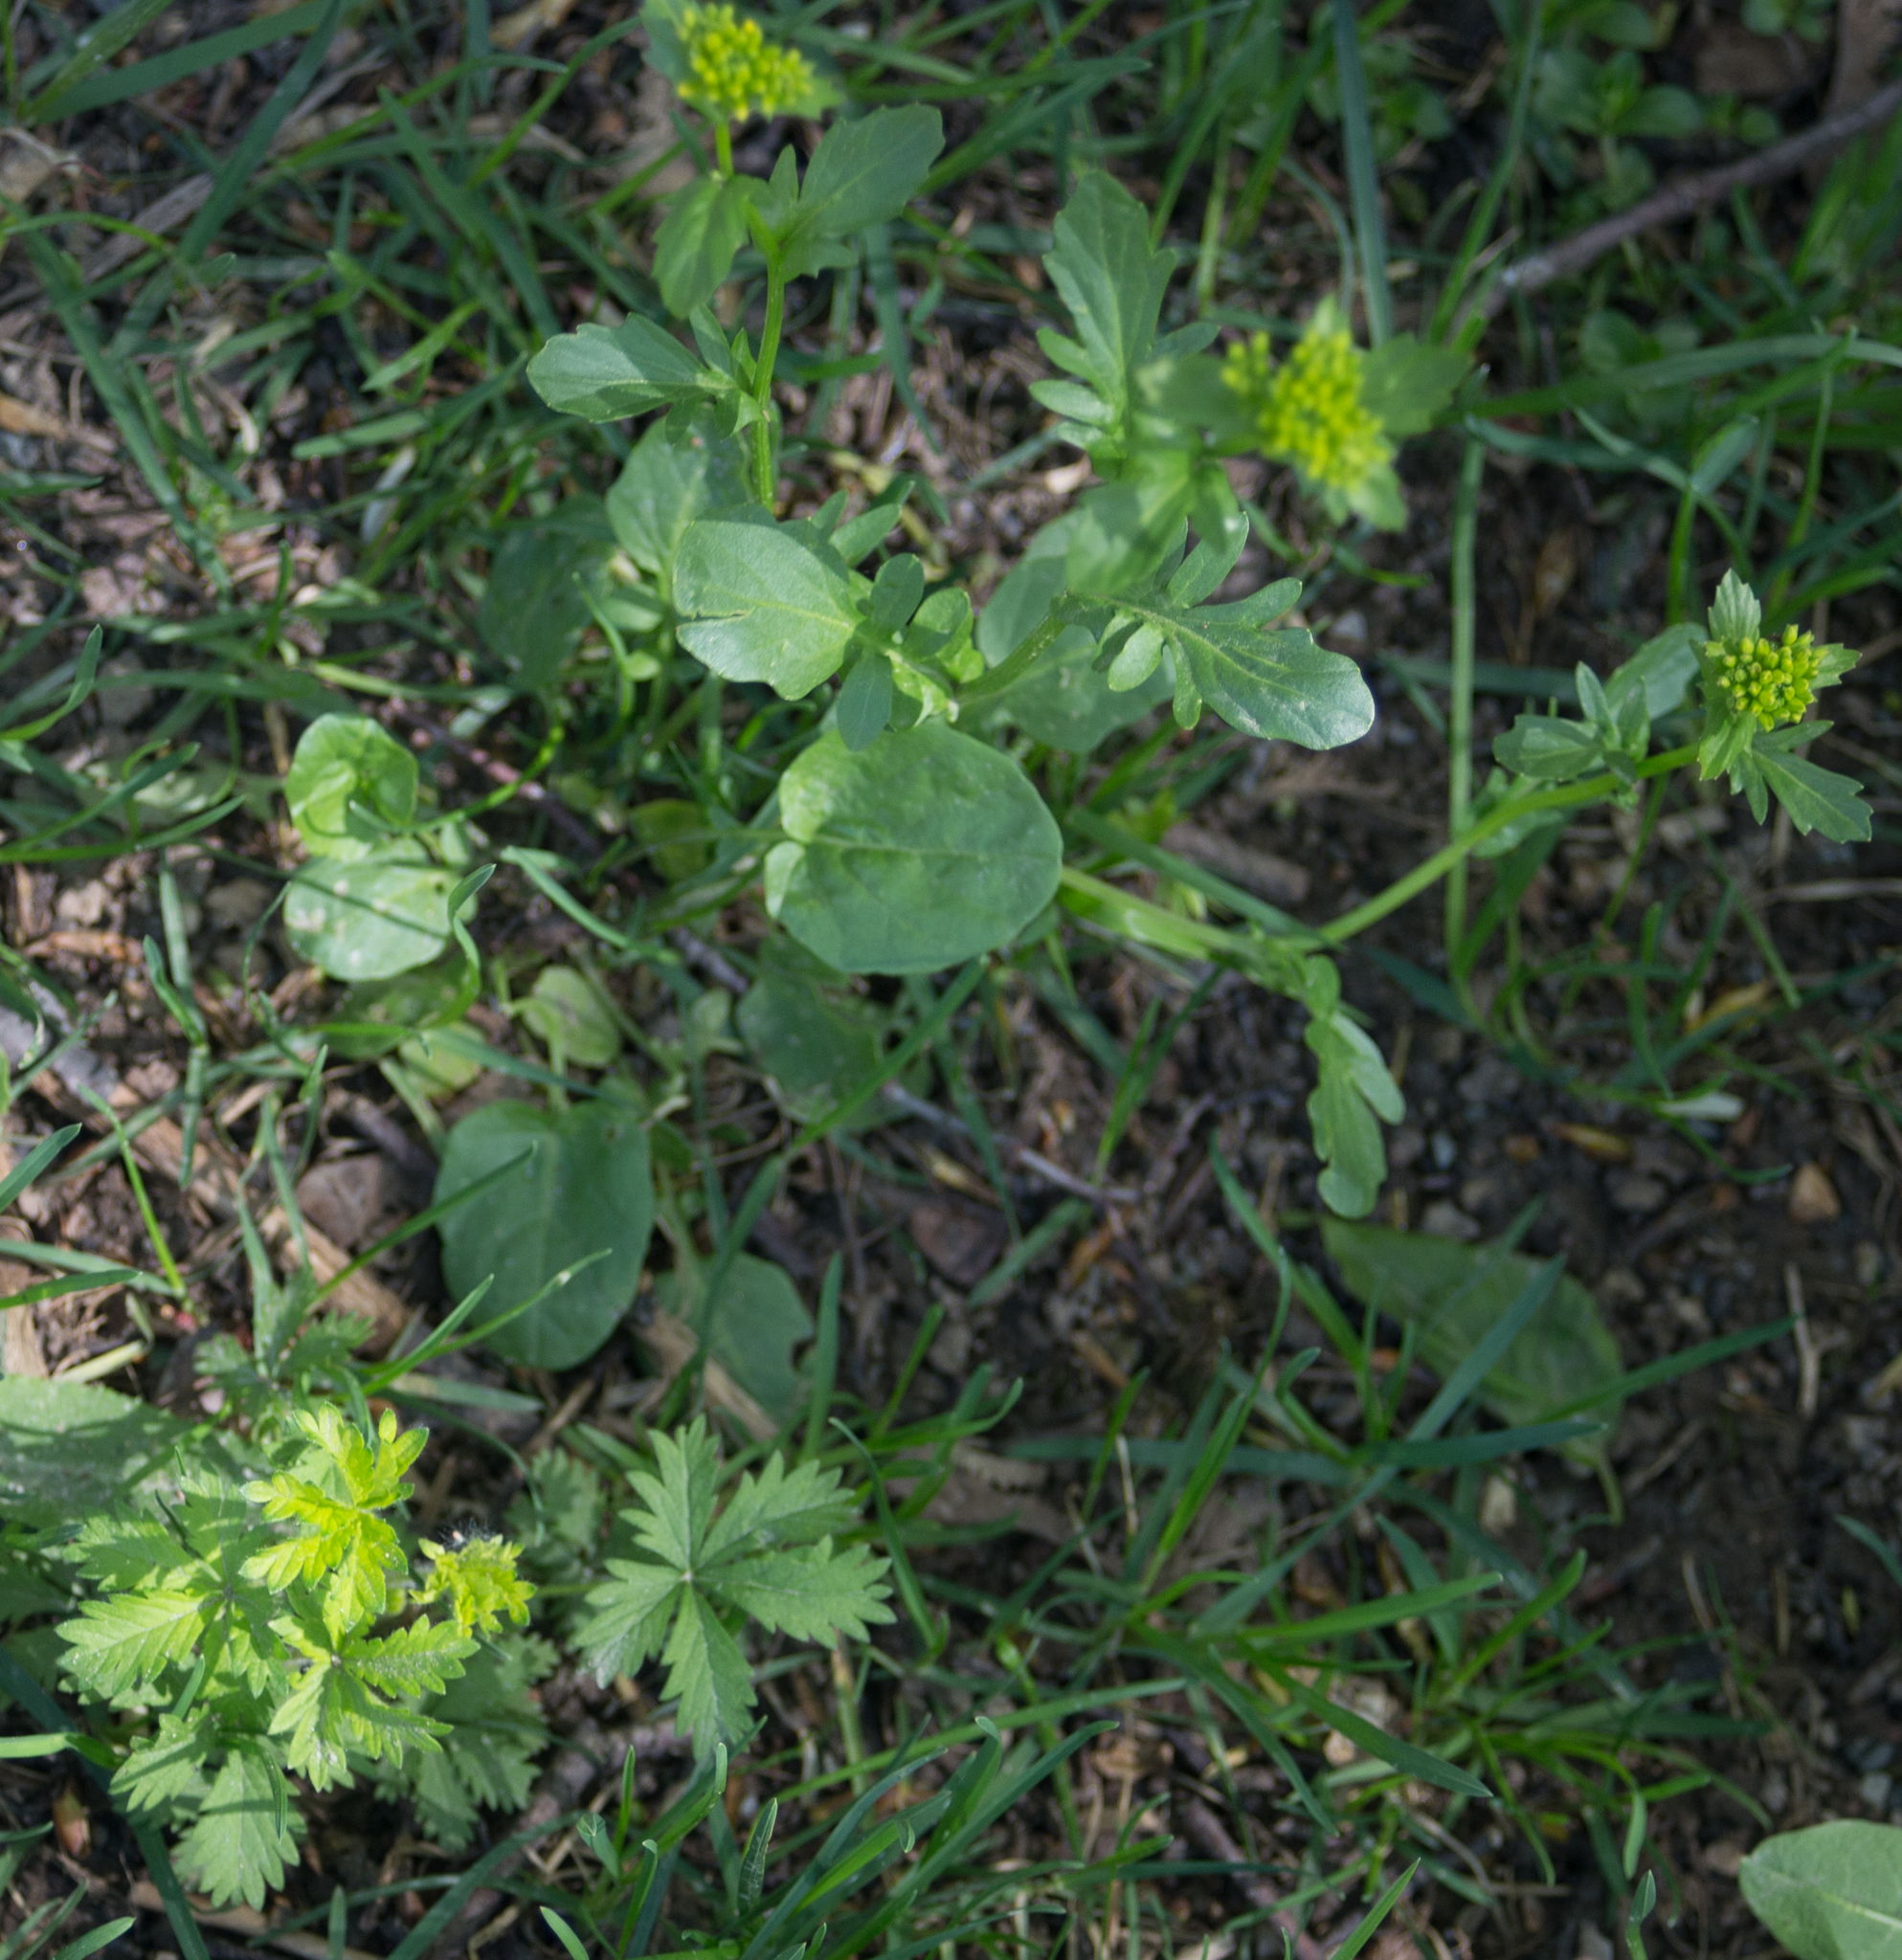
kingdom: Plantae
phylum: Tracheophyta
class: Magnoliopsida
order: Brassicales
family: Brassicaceae
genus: Barbarea
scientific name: Barbarea vulgaris
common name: Cressy-greens
